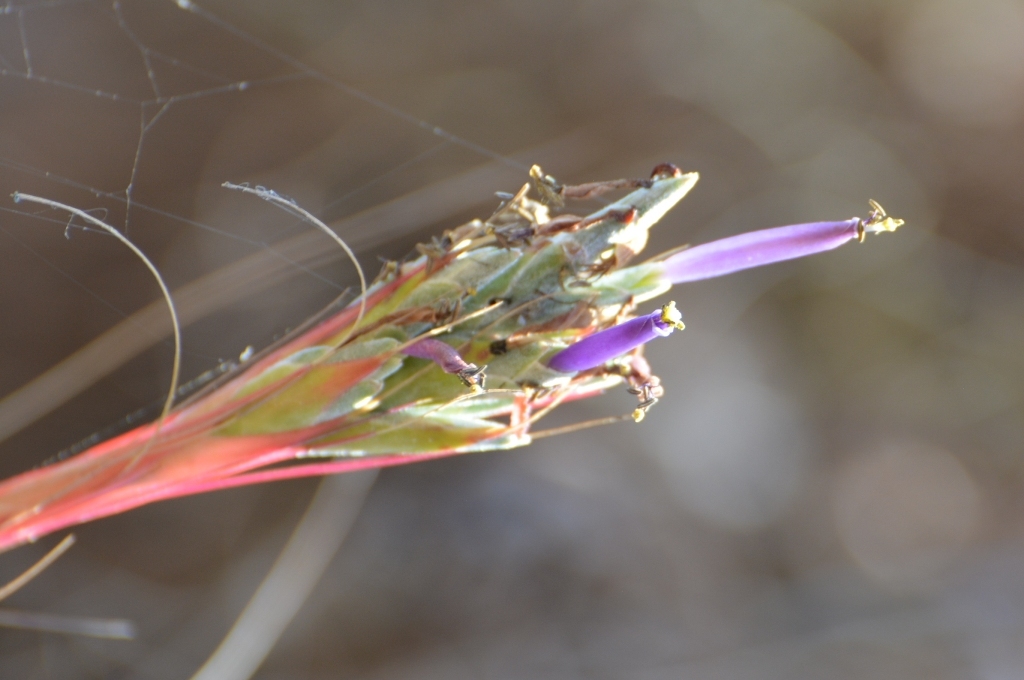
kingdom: Plantae
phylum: Tracheophyta
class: Liliopsida
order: Poales
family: Bromeliaceae
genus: Tillandsia
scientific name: Tillandsia juncea
